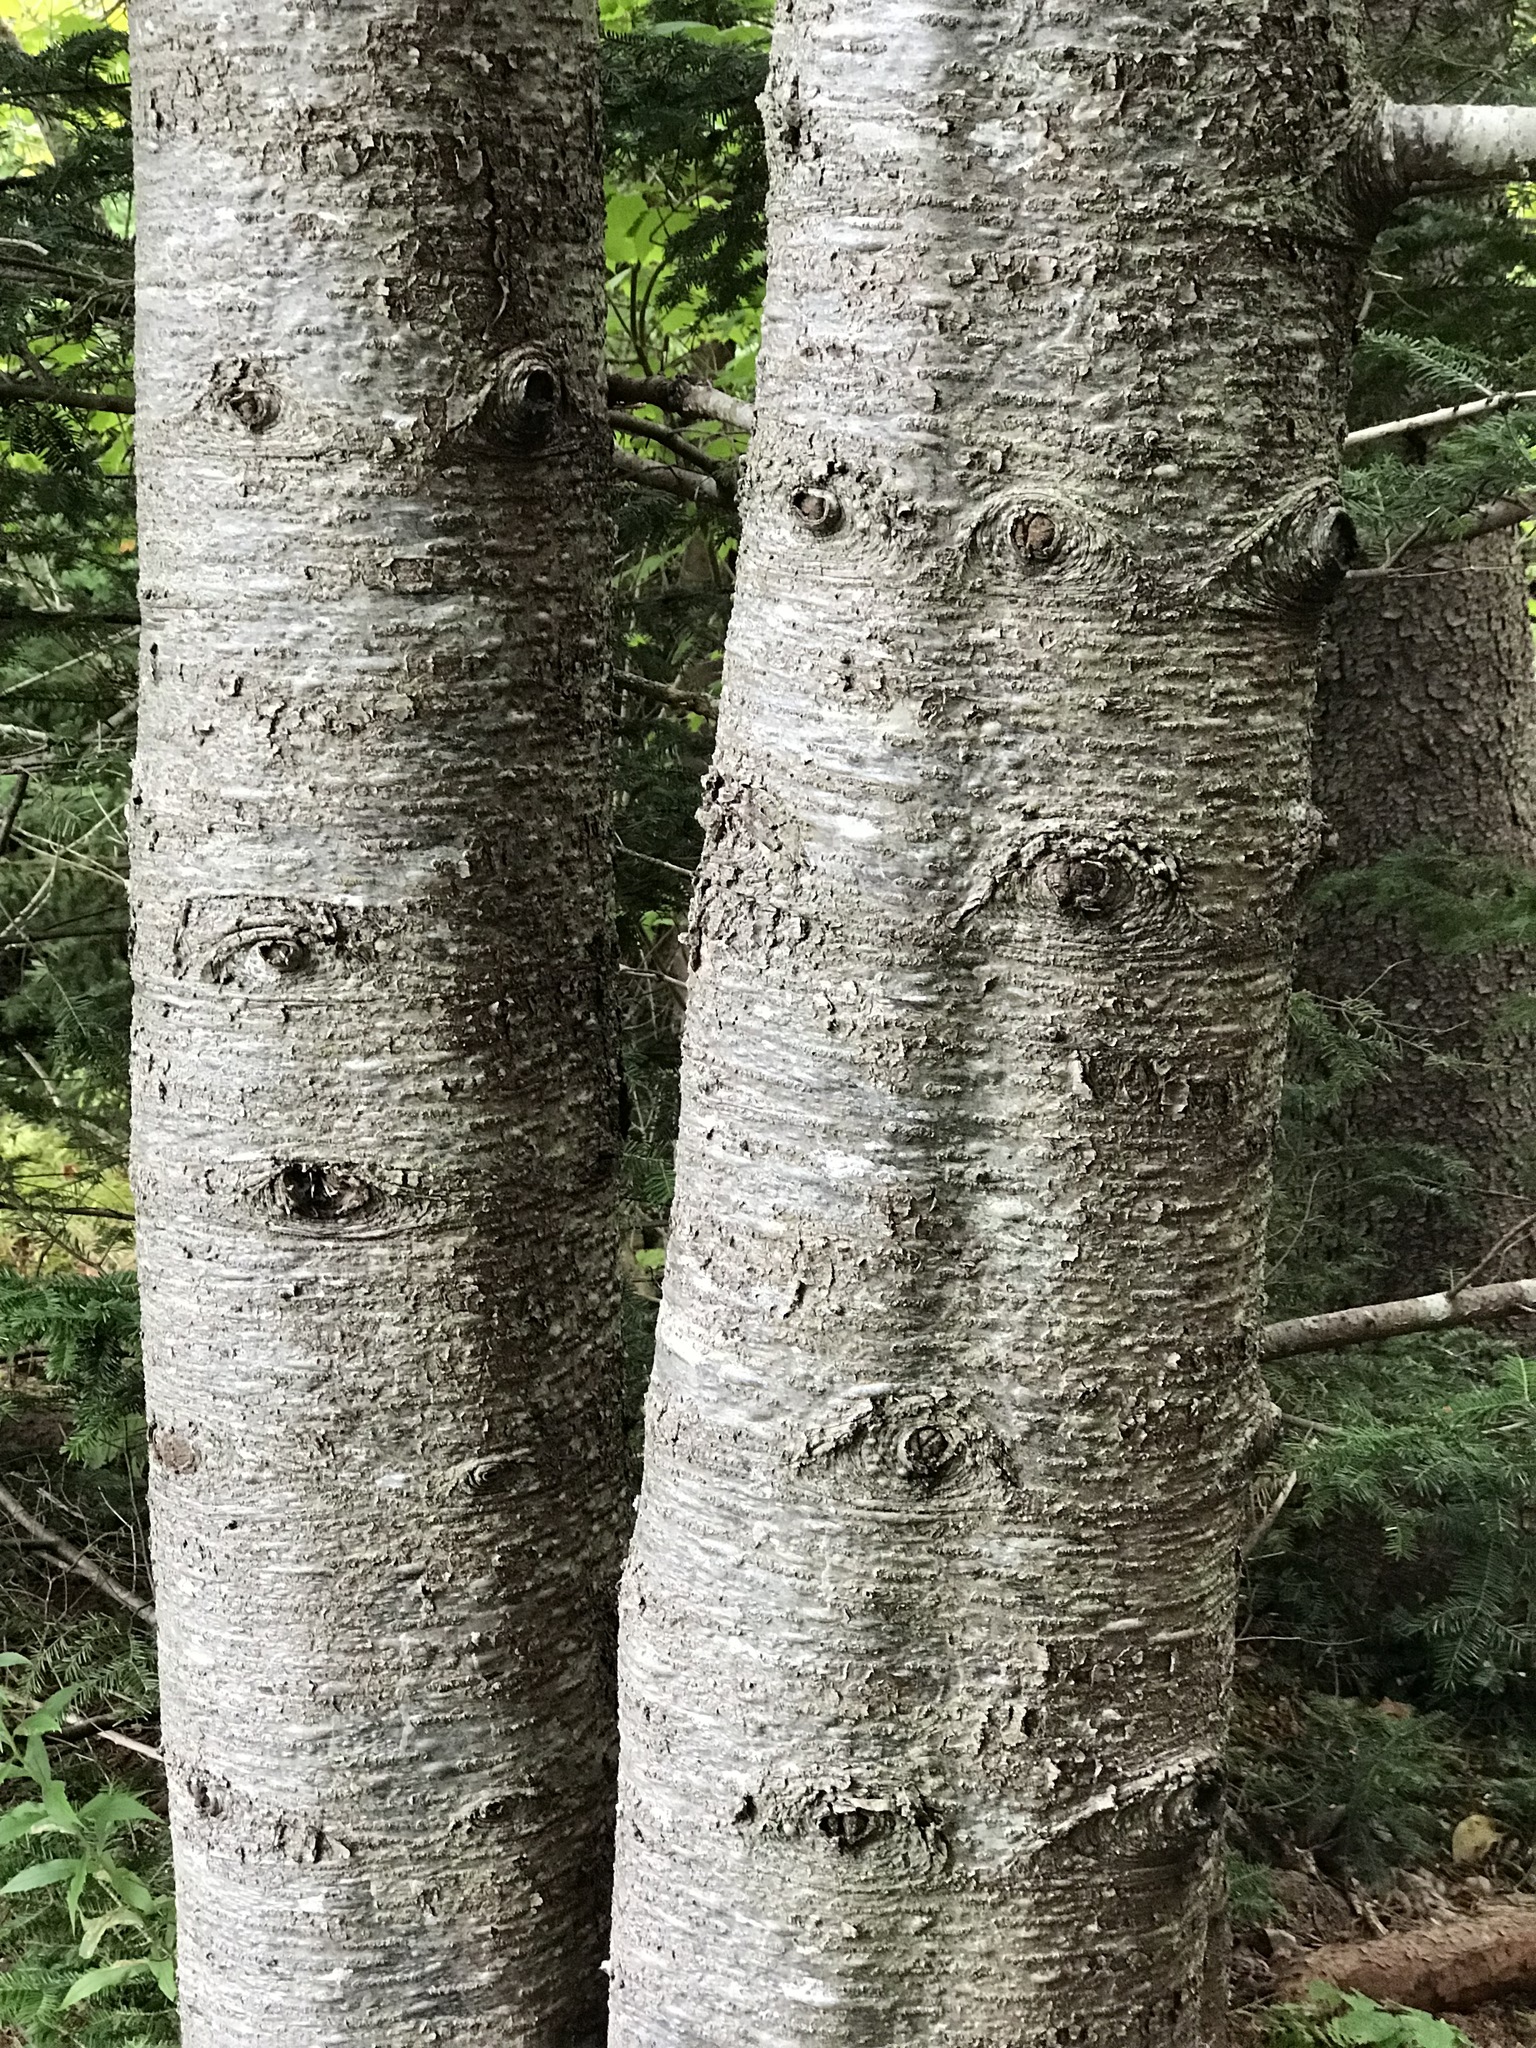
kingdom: Plantae
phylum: Tracheophyta
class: Pinopsida
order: Pinales
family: Pinaceae
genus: Abies
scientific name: Abies balsamea
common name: Balsam fir
